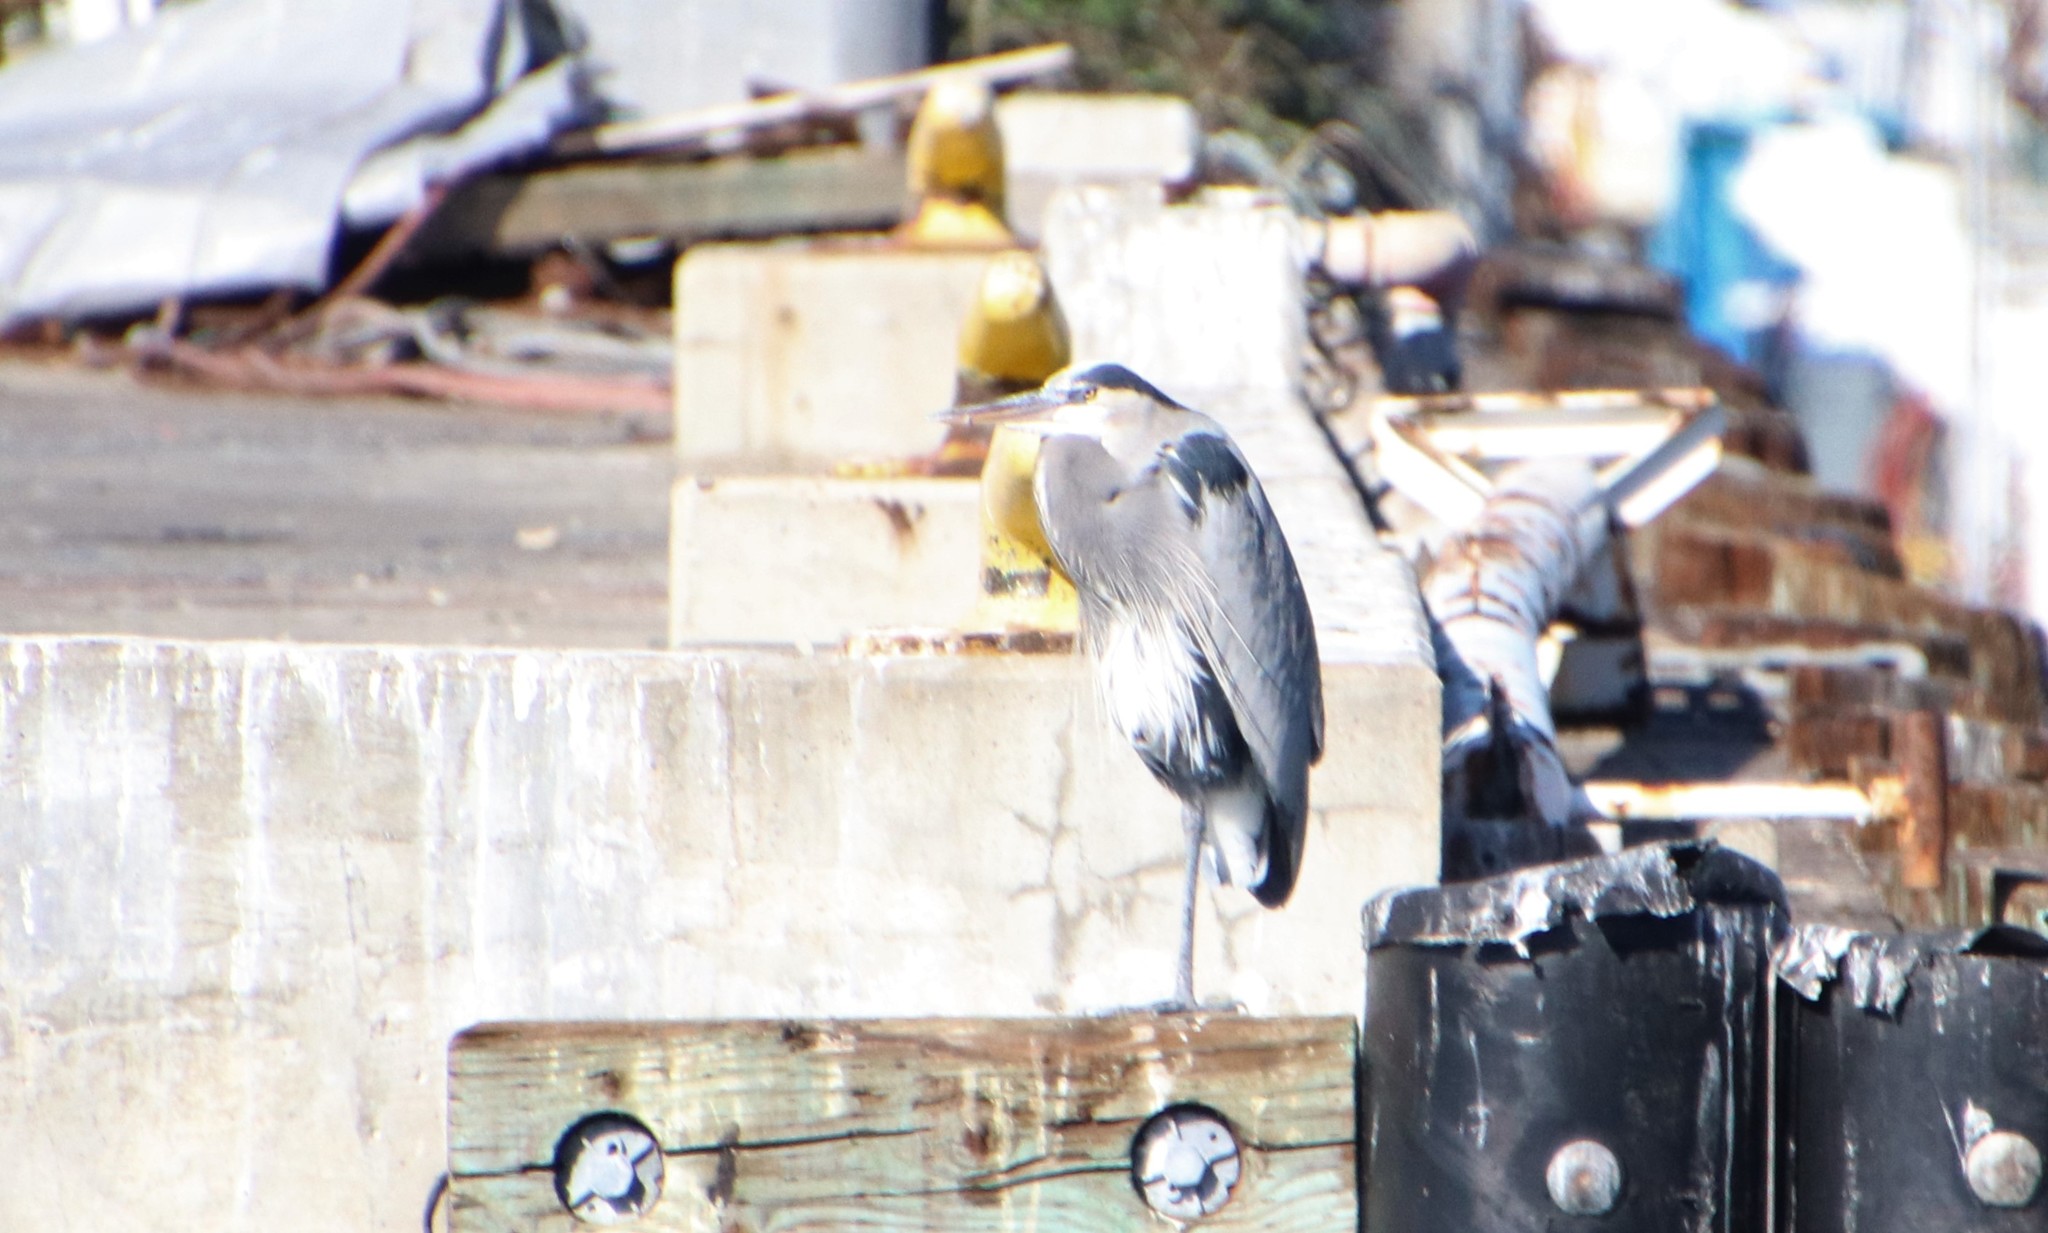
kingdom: Animalia
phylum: Chordata
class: Aves
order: Pelecaniformes
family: Ardeidae
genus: Ardea
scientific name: Ardea herodias
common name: Great blue heron
